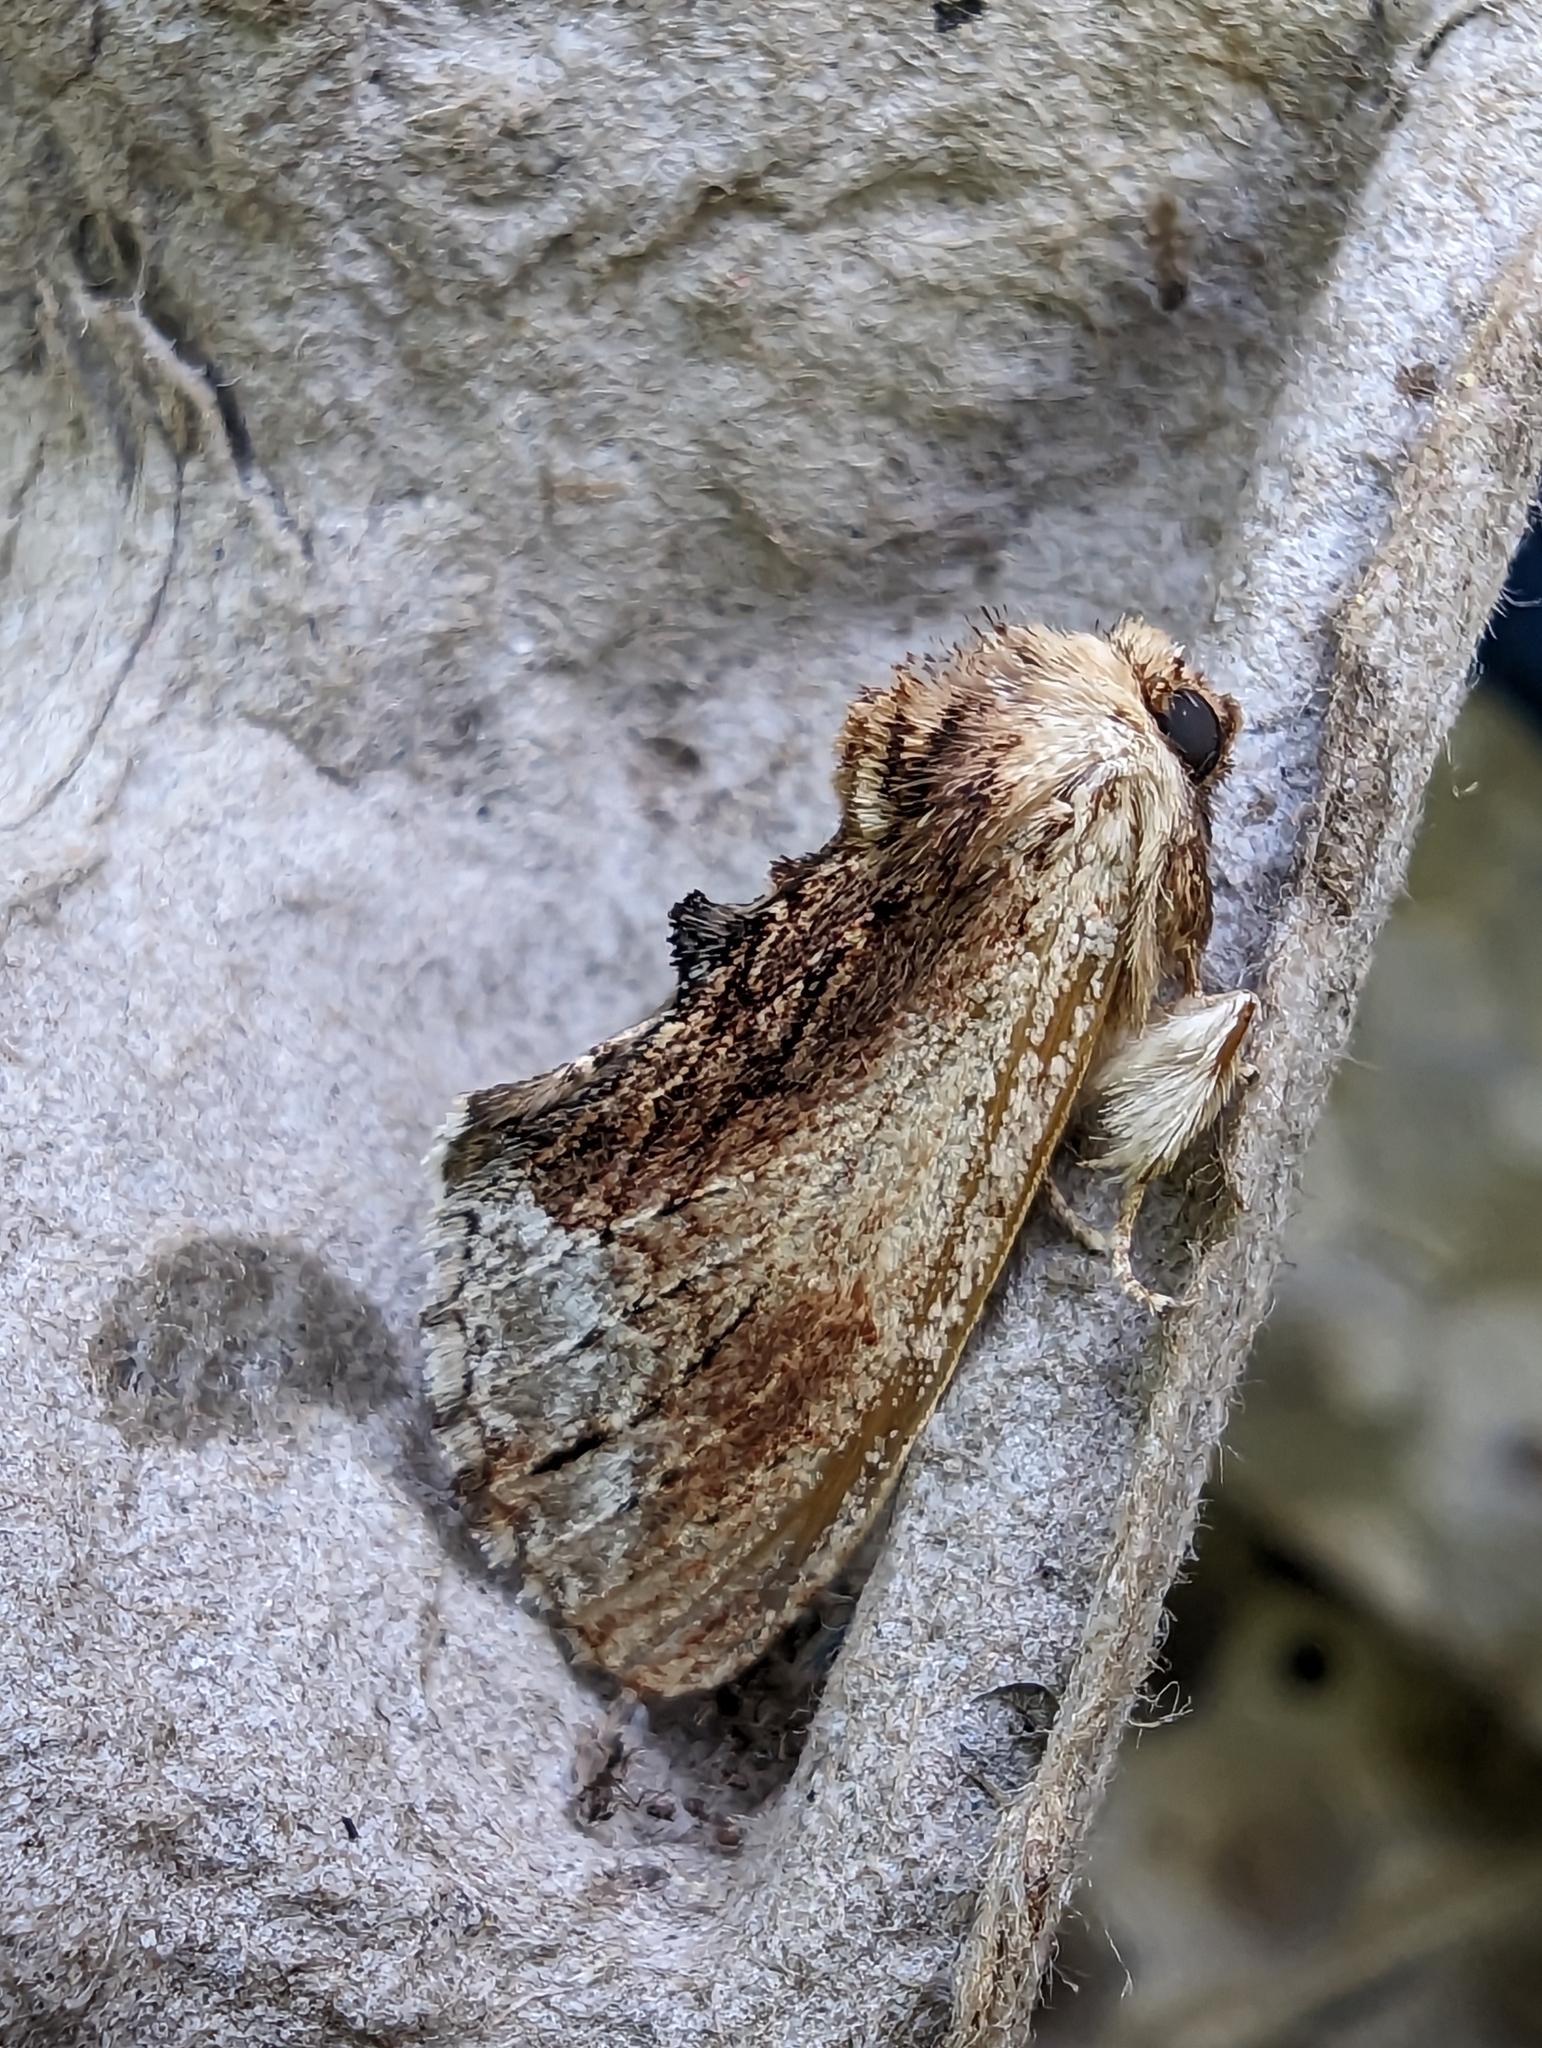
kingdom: Animalia
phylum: Arthropoda
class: Insecta
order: Lepidoptera
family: Notodontidae
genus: Ptilodon
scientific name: Ptilodon cucullina
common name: Maple prominent
